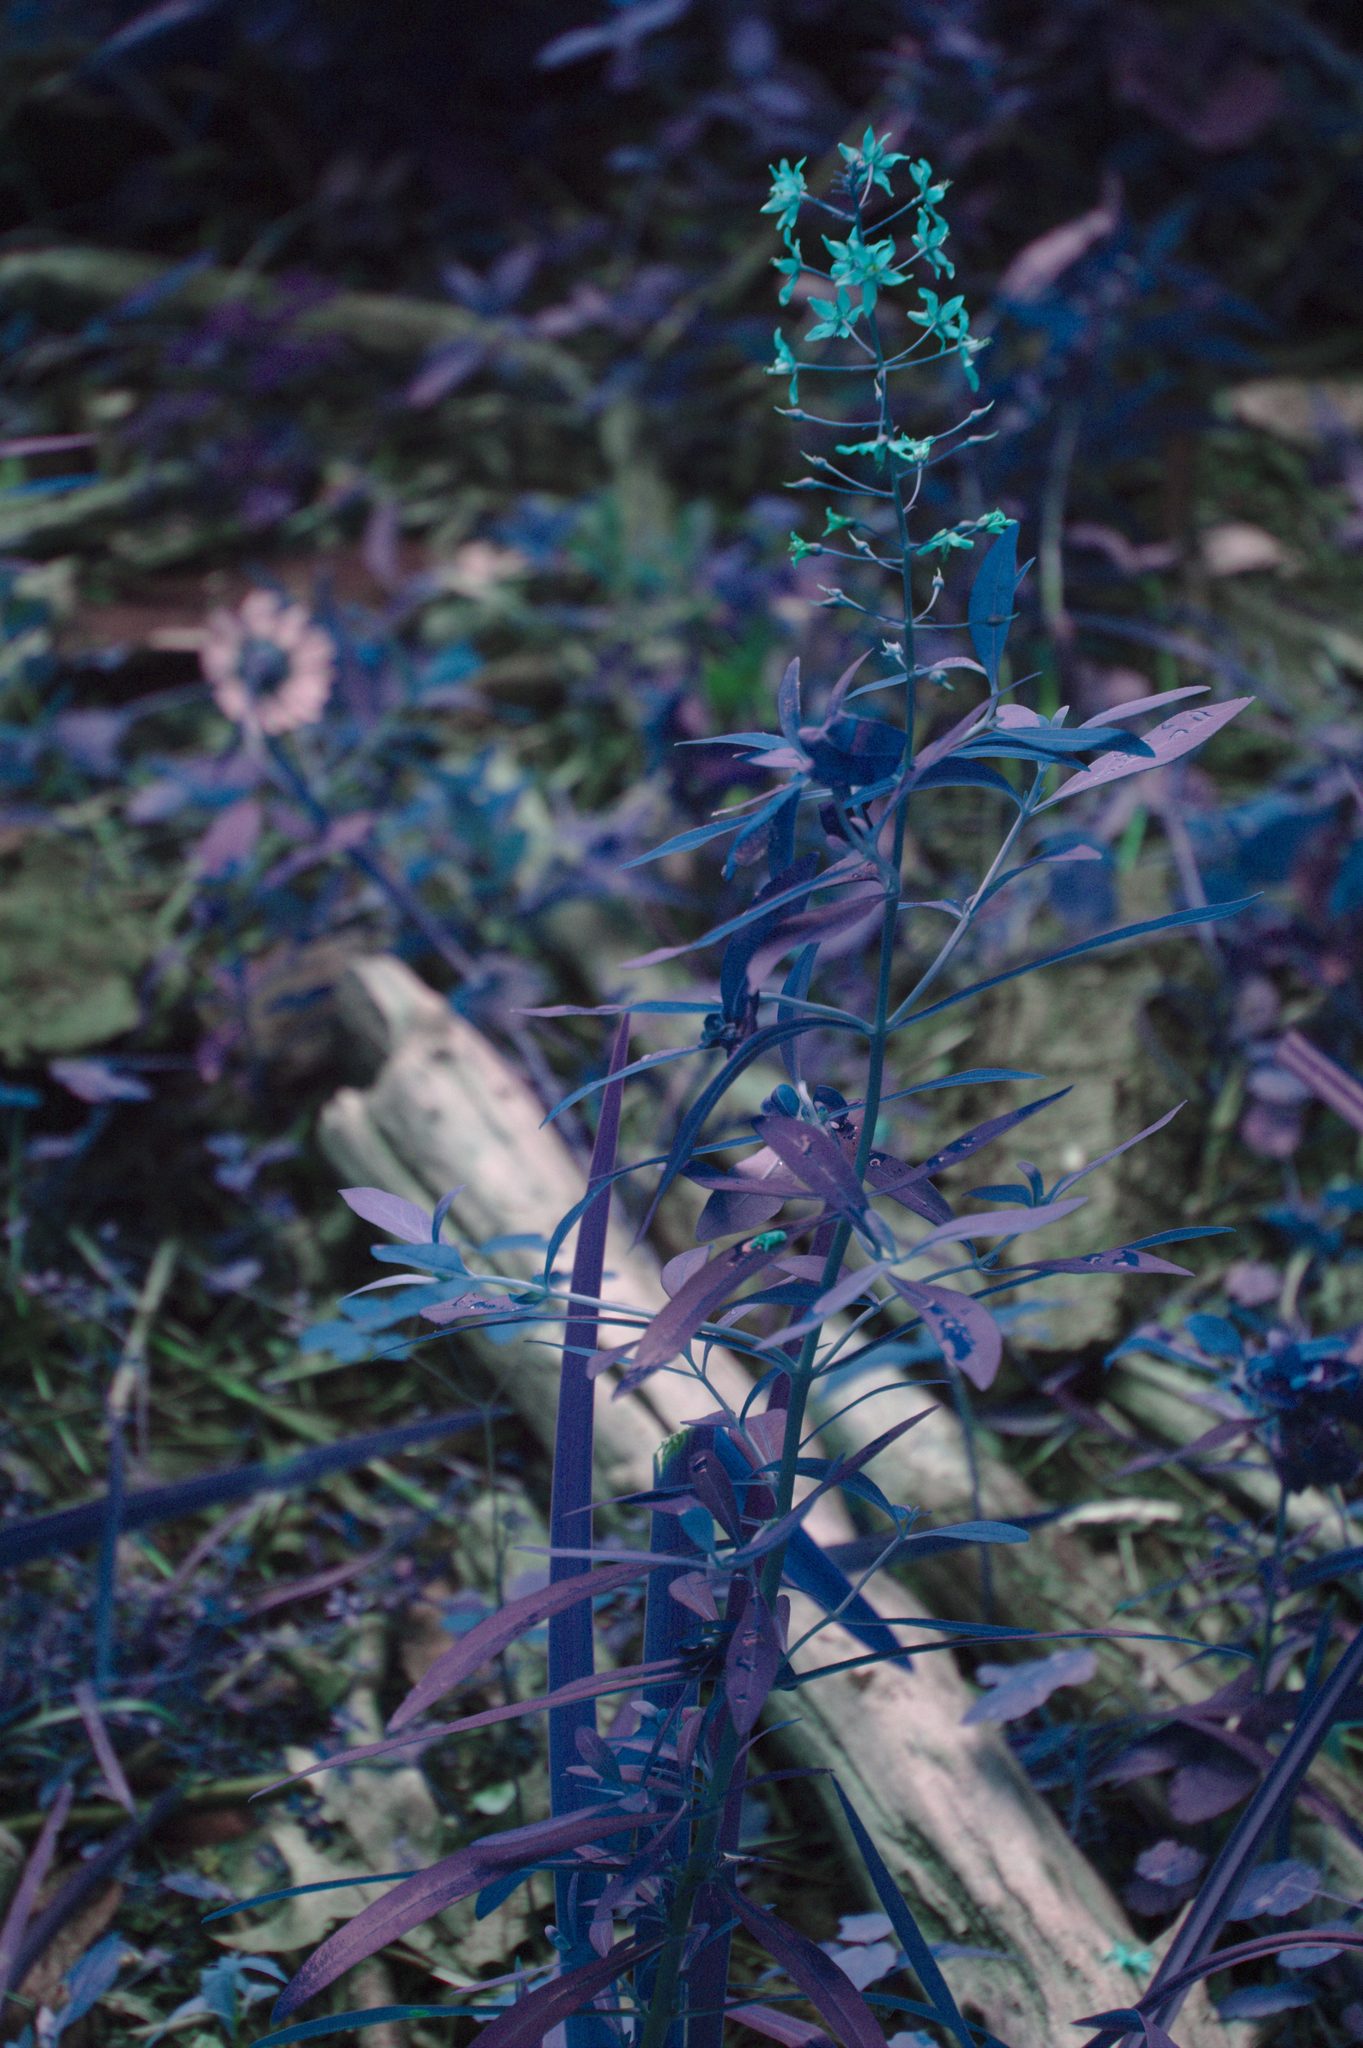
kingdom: Plantae
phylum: Tracheophyta
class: Magnoliopsida
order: Ericales
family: Primulaceae
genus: Lysimachia
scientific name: Lysimachia terrestris
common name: Lake loosestrife
